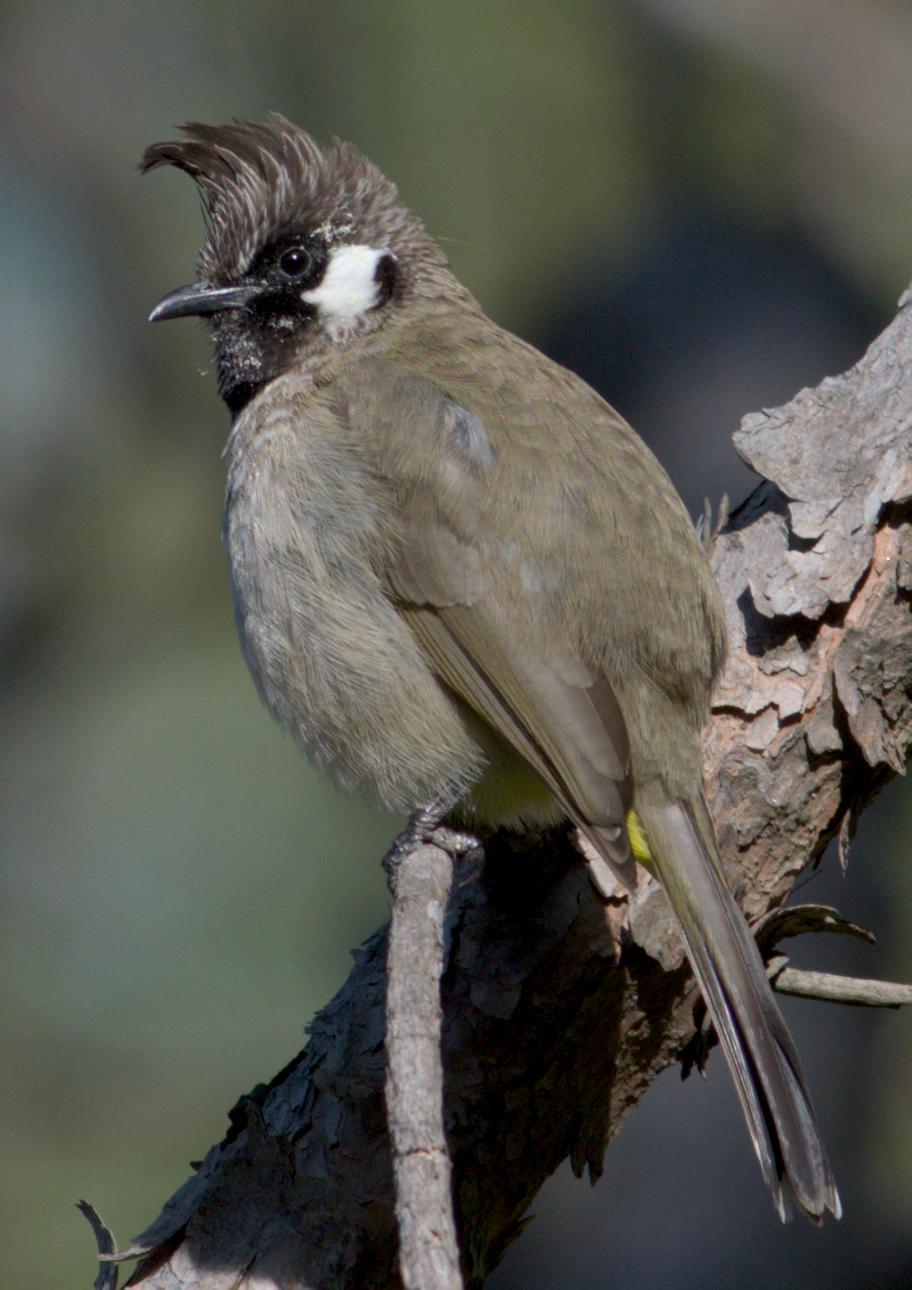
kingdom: Animalia
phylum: Chordata
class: Aves
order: Passeriformes
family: Pycnonotidae
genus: Pycnonotus
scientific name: Pycnonotus leucogenys
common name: Himalayan bulbul
